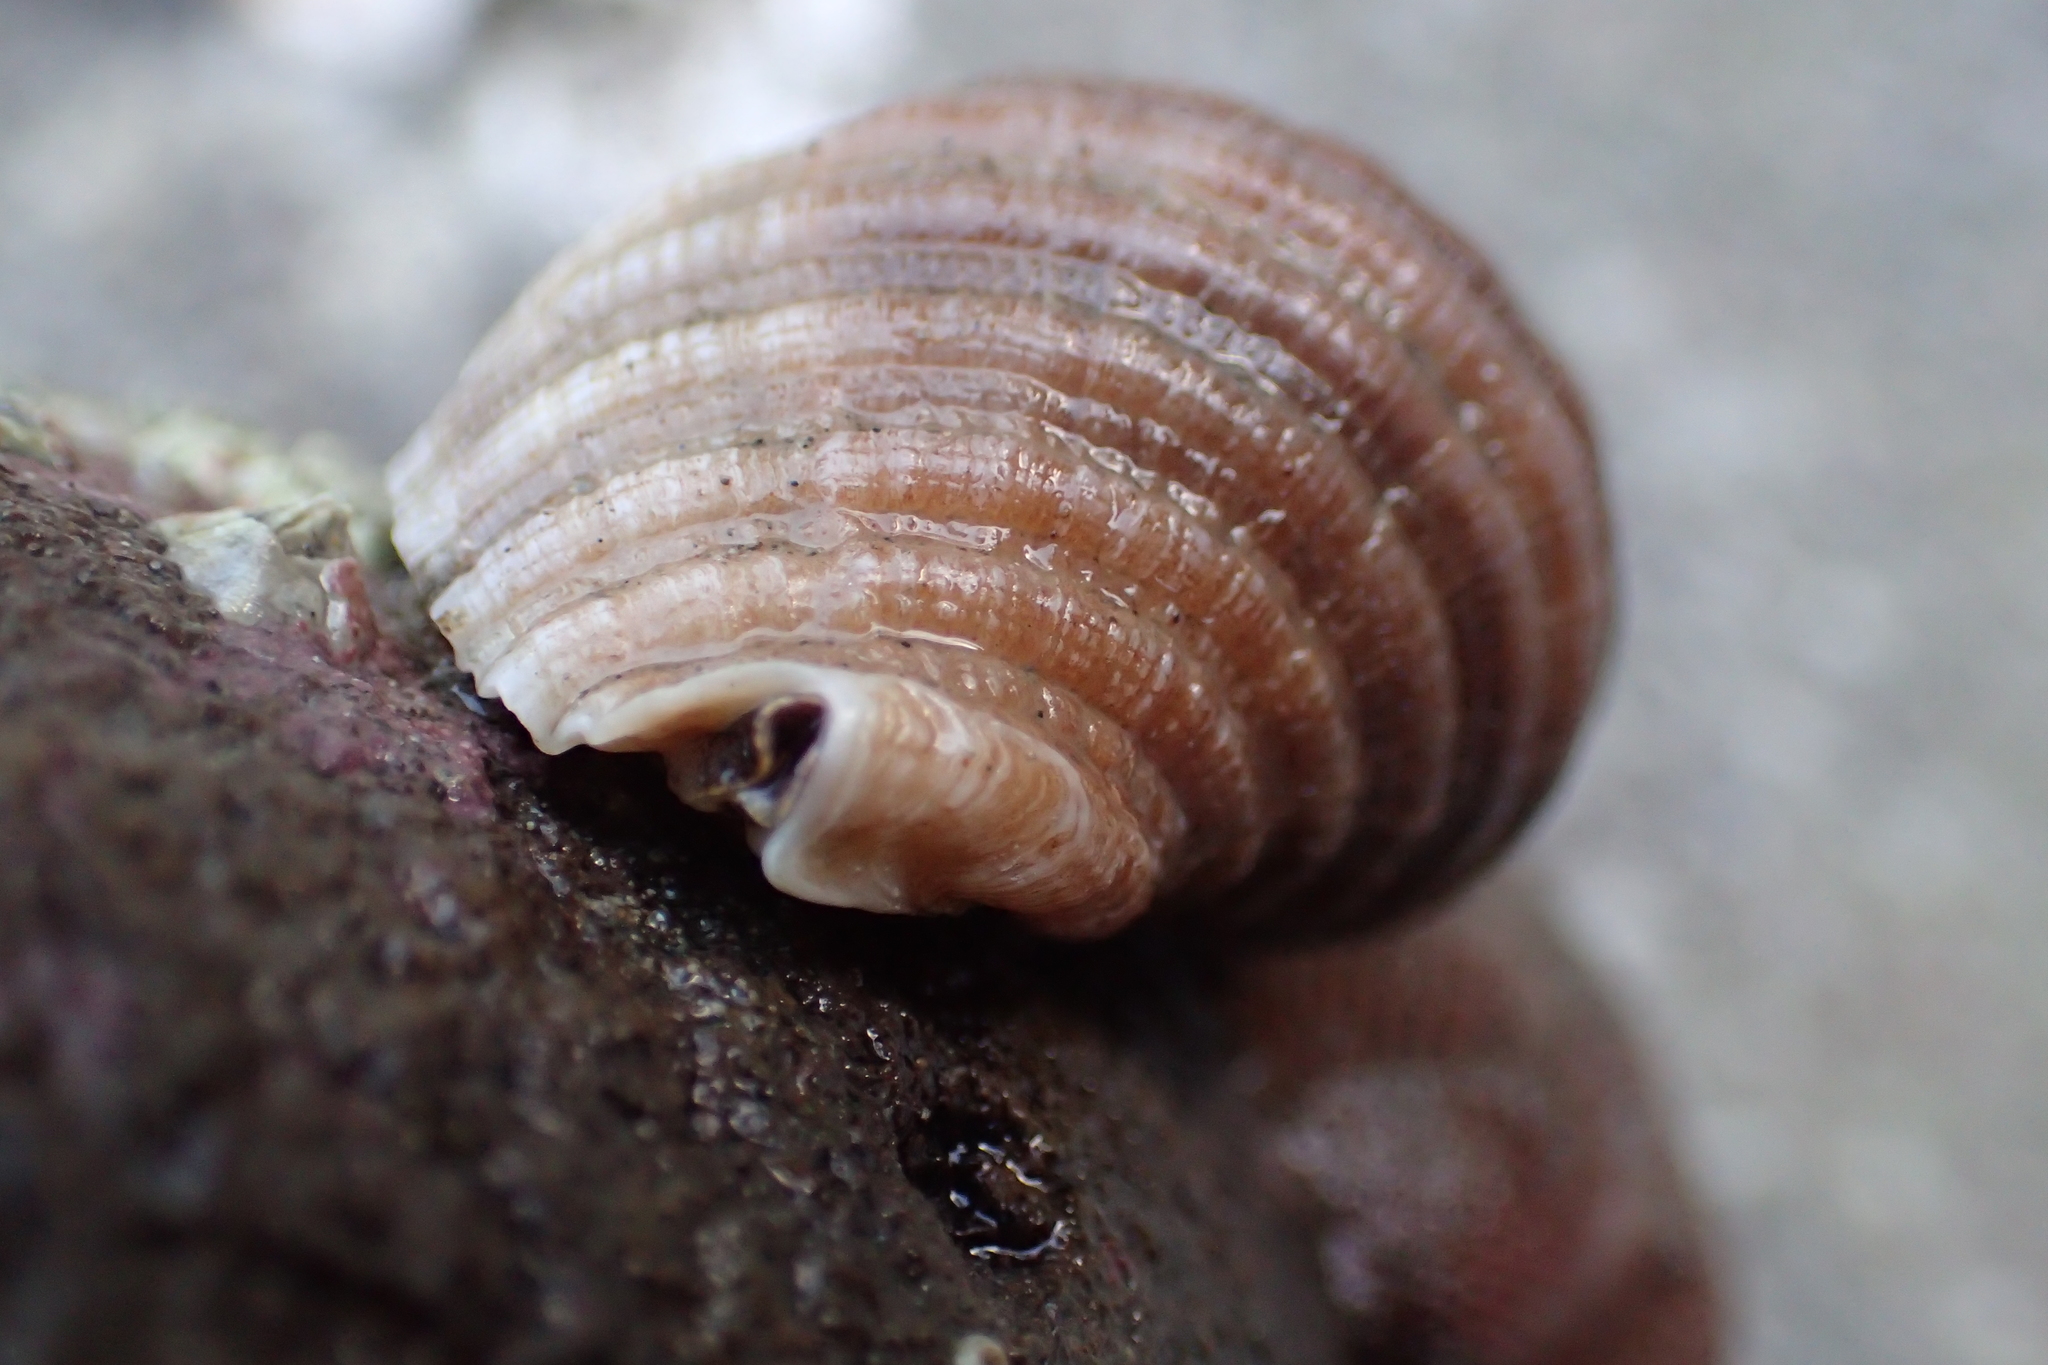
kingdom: Animalia
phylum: Mollusca
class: Gastropoda
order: Neogastropoda
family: Muricidae
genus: Dicathais
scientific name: Dicathais orbita
